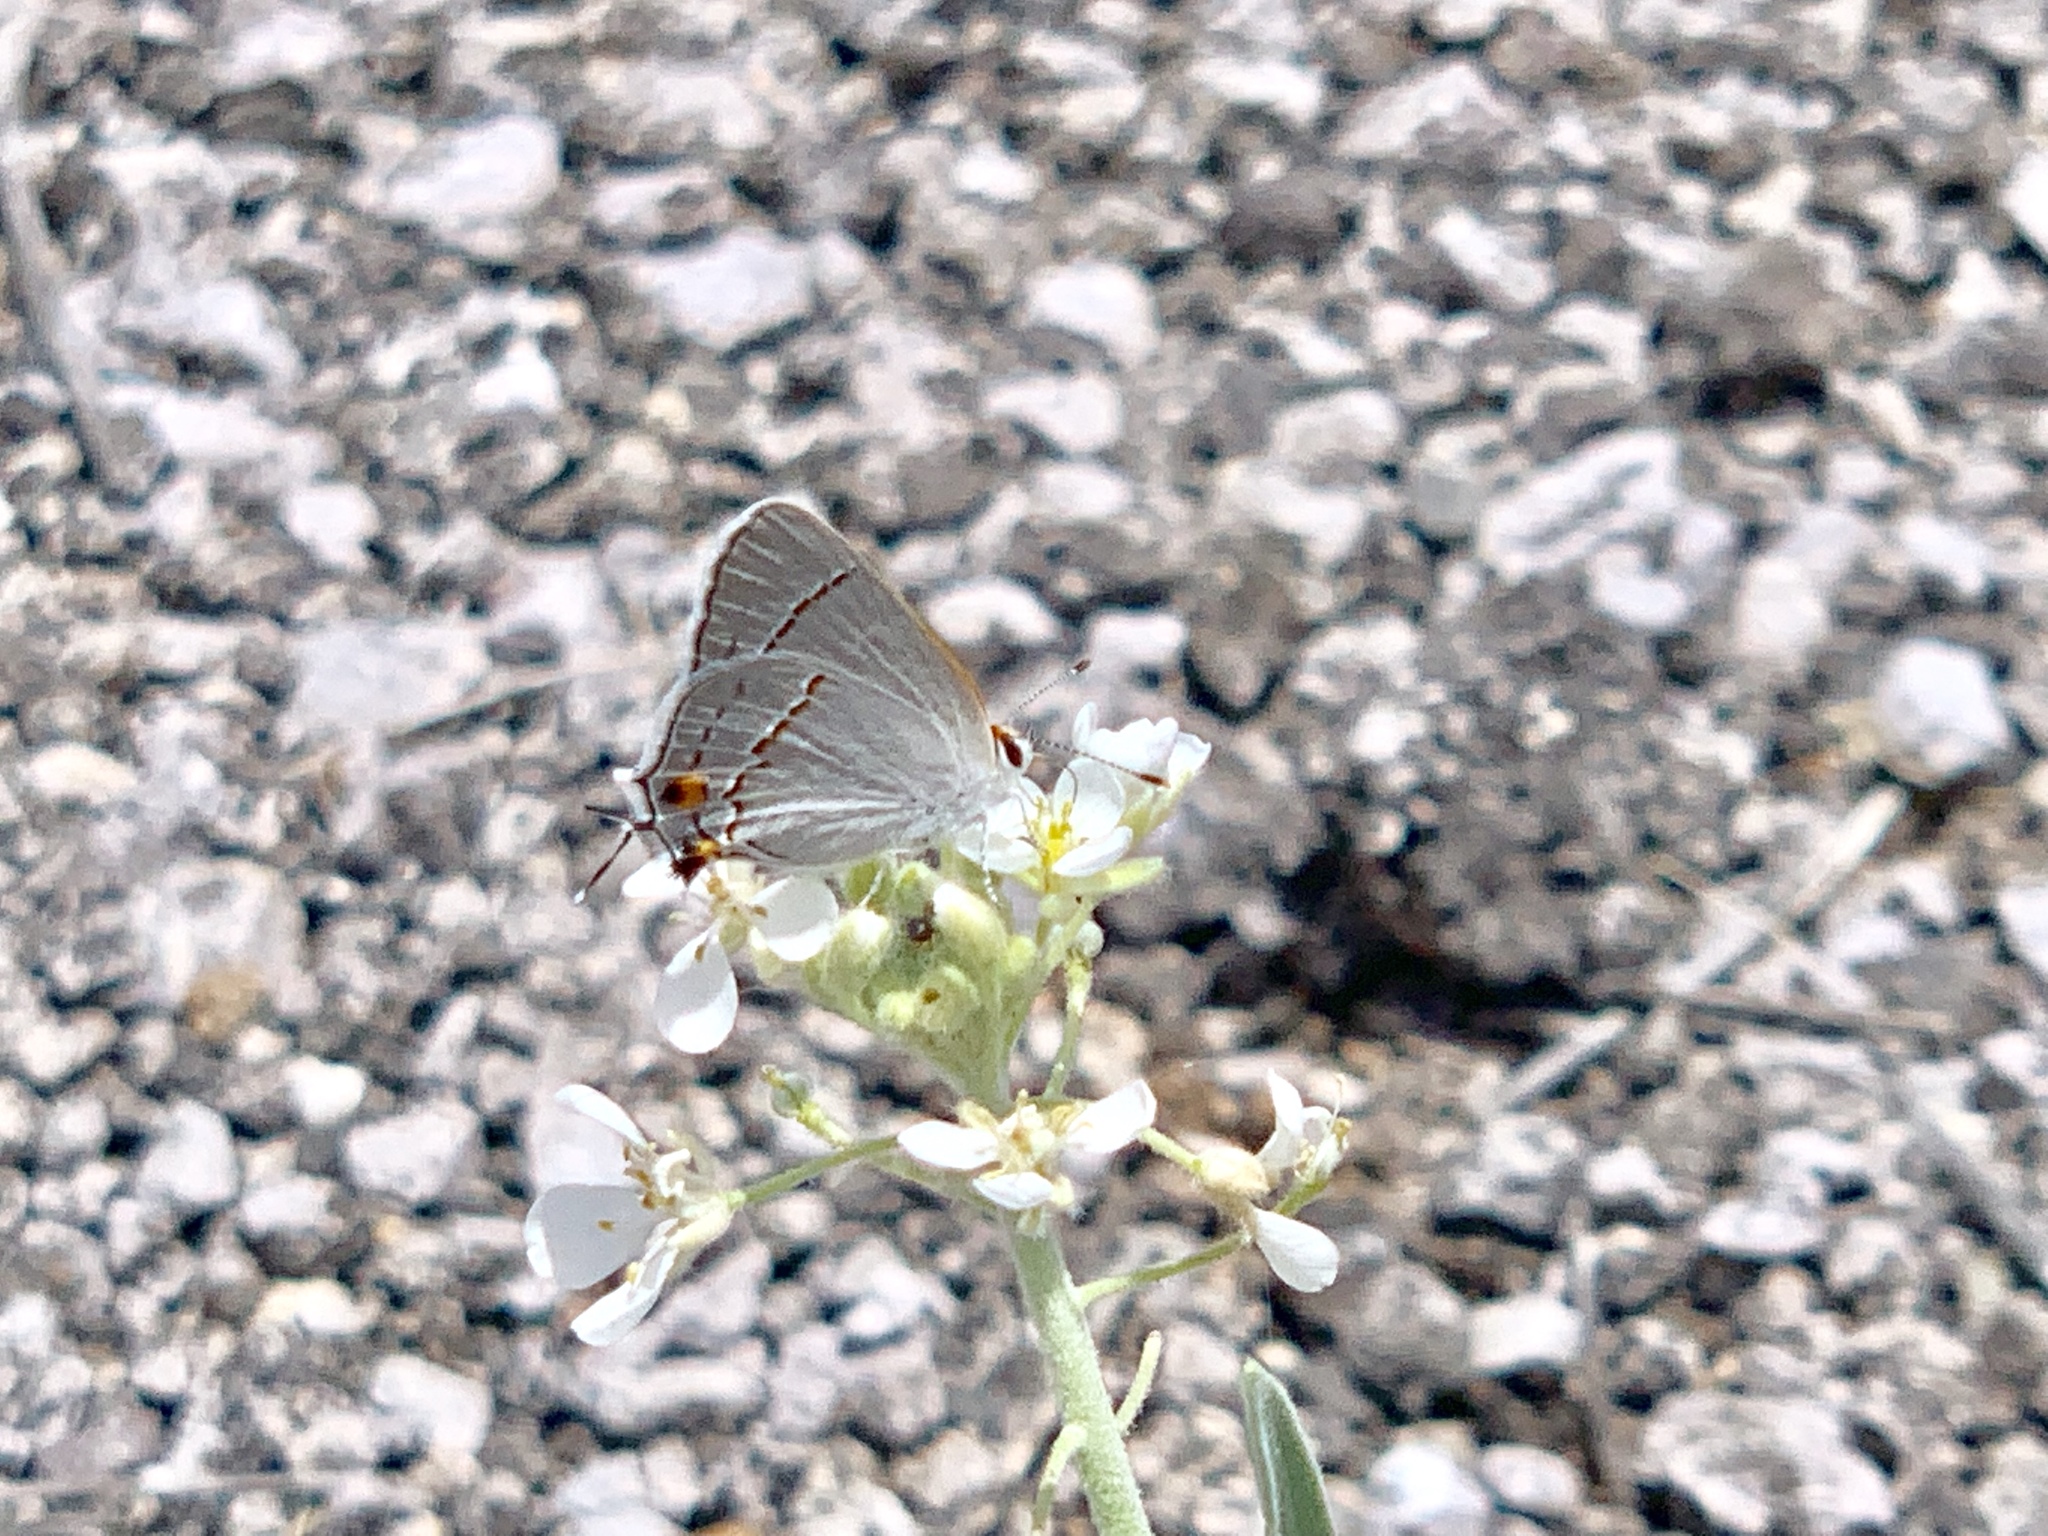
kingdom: Animalia
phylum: Arthropoda
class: Insecta
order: Lepidoptera
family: Lycaenidae
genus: Strymon
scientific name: Strymon melinus
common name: Gray hairstreak
